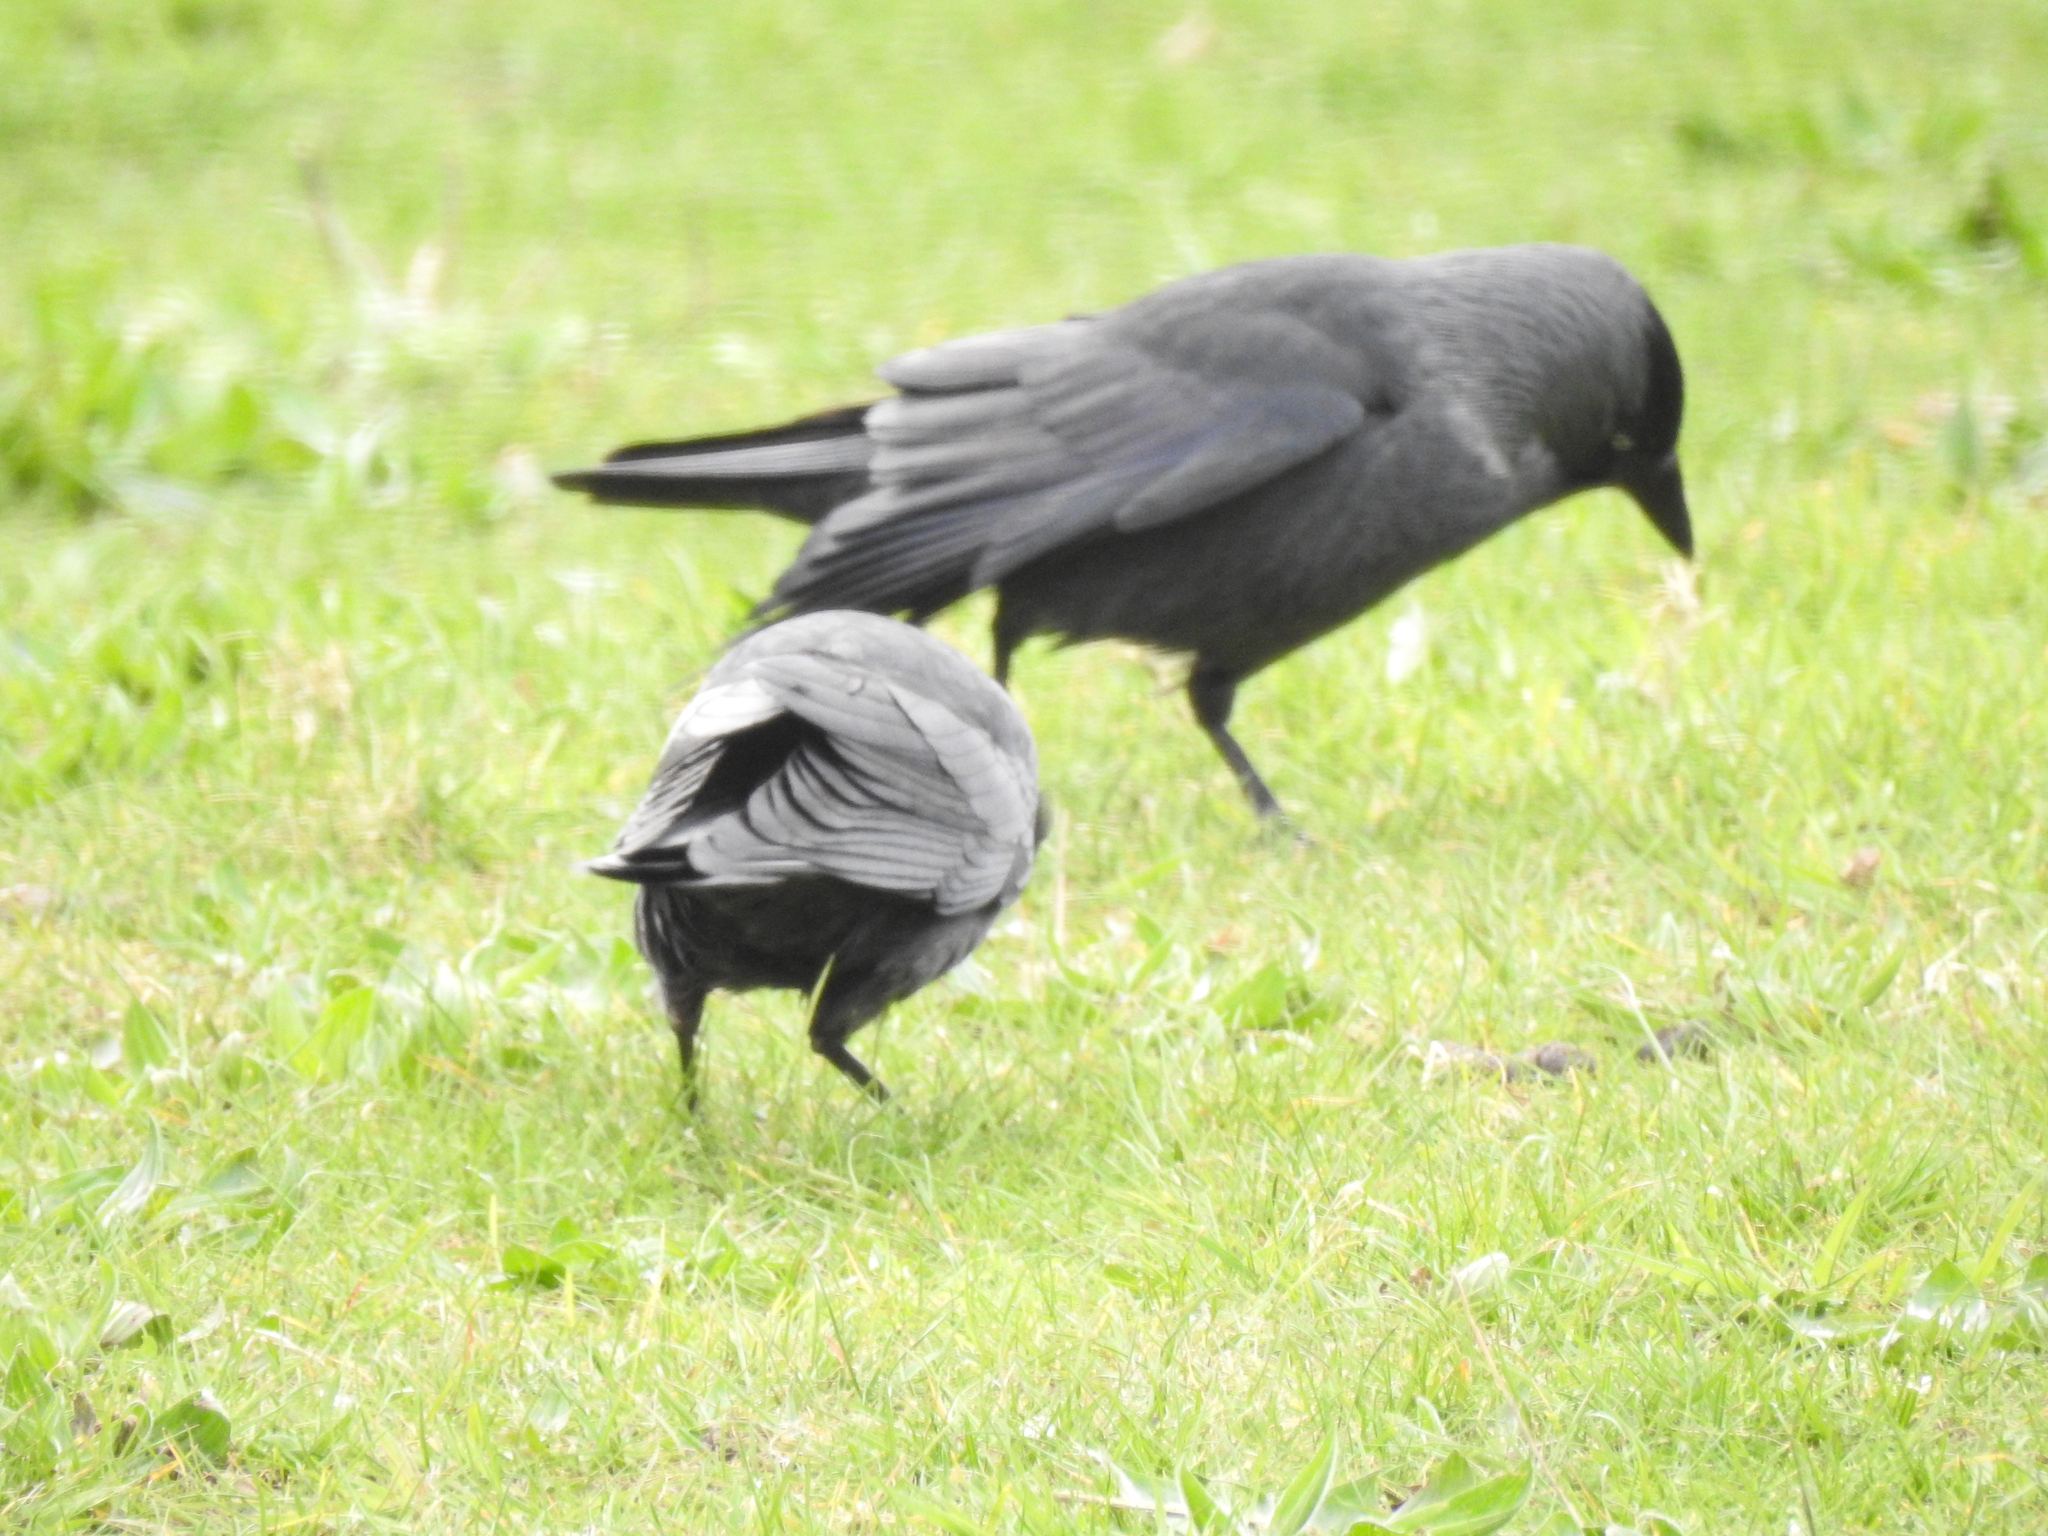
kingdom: Animalia
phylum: Chordata
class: Aves
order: Passeriformes
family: Corvidae
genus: Coloeus
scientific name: Coloeus monedula
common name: Western jackdaw
